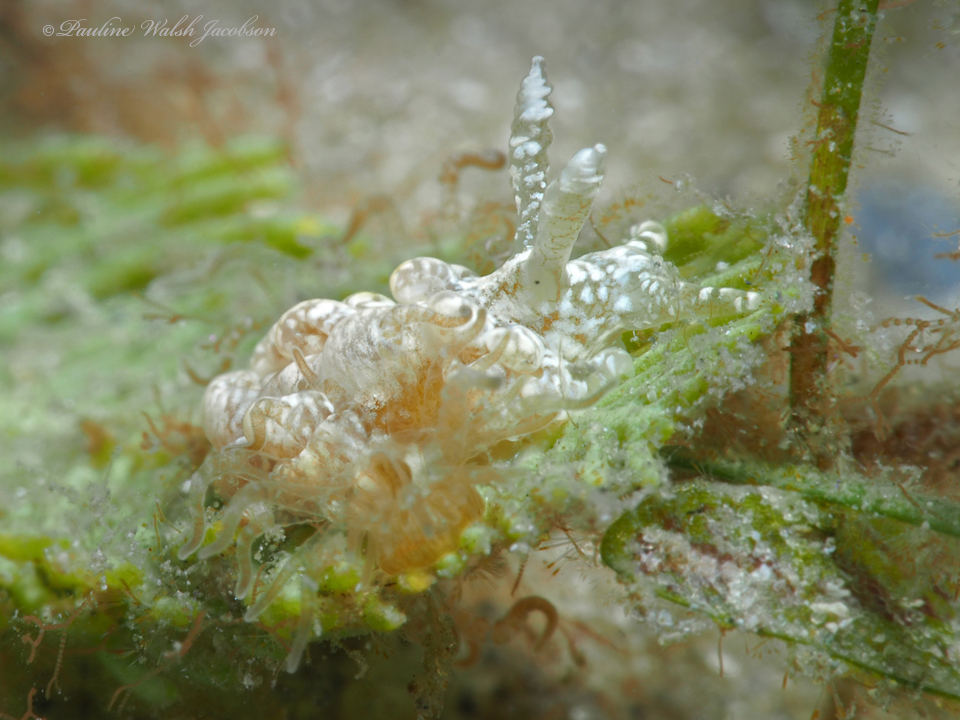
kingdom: Animalia
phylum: Mollusca
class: Gastropoda
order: Nudibranchia
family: Aeolidiidae
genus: Spurilla
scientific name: Spurilla sargassicola
